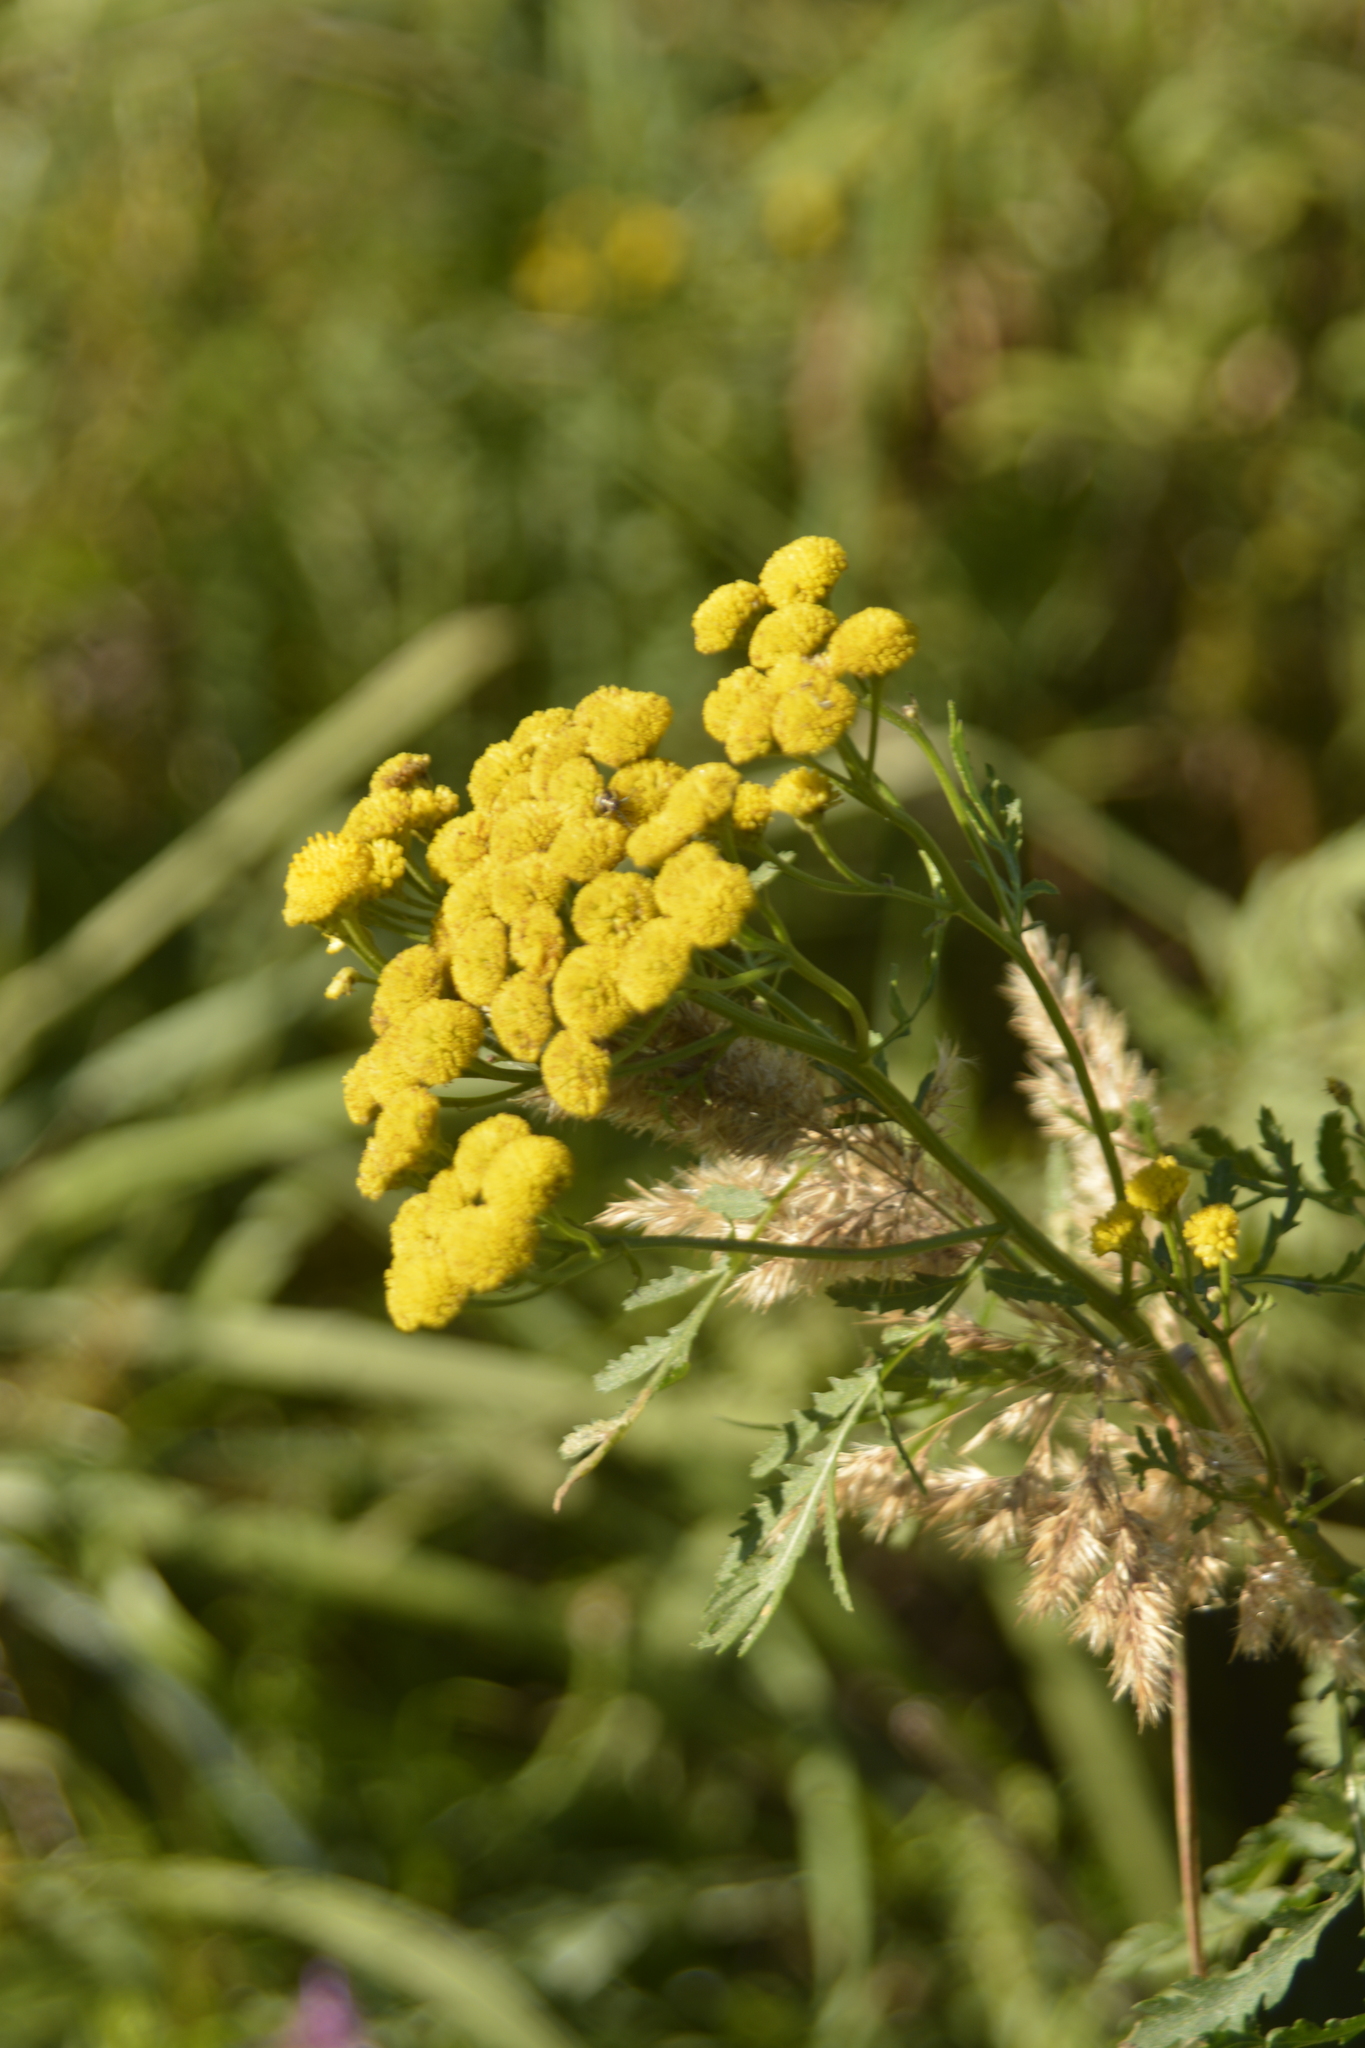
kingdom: Plantae
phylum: Tracheophyta
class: Magnoliopsida
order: Asterales
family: Asteraceae
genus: Tanacetum
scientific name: Tanacetum vulgare
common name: Common tansy
